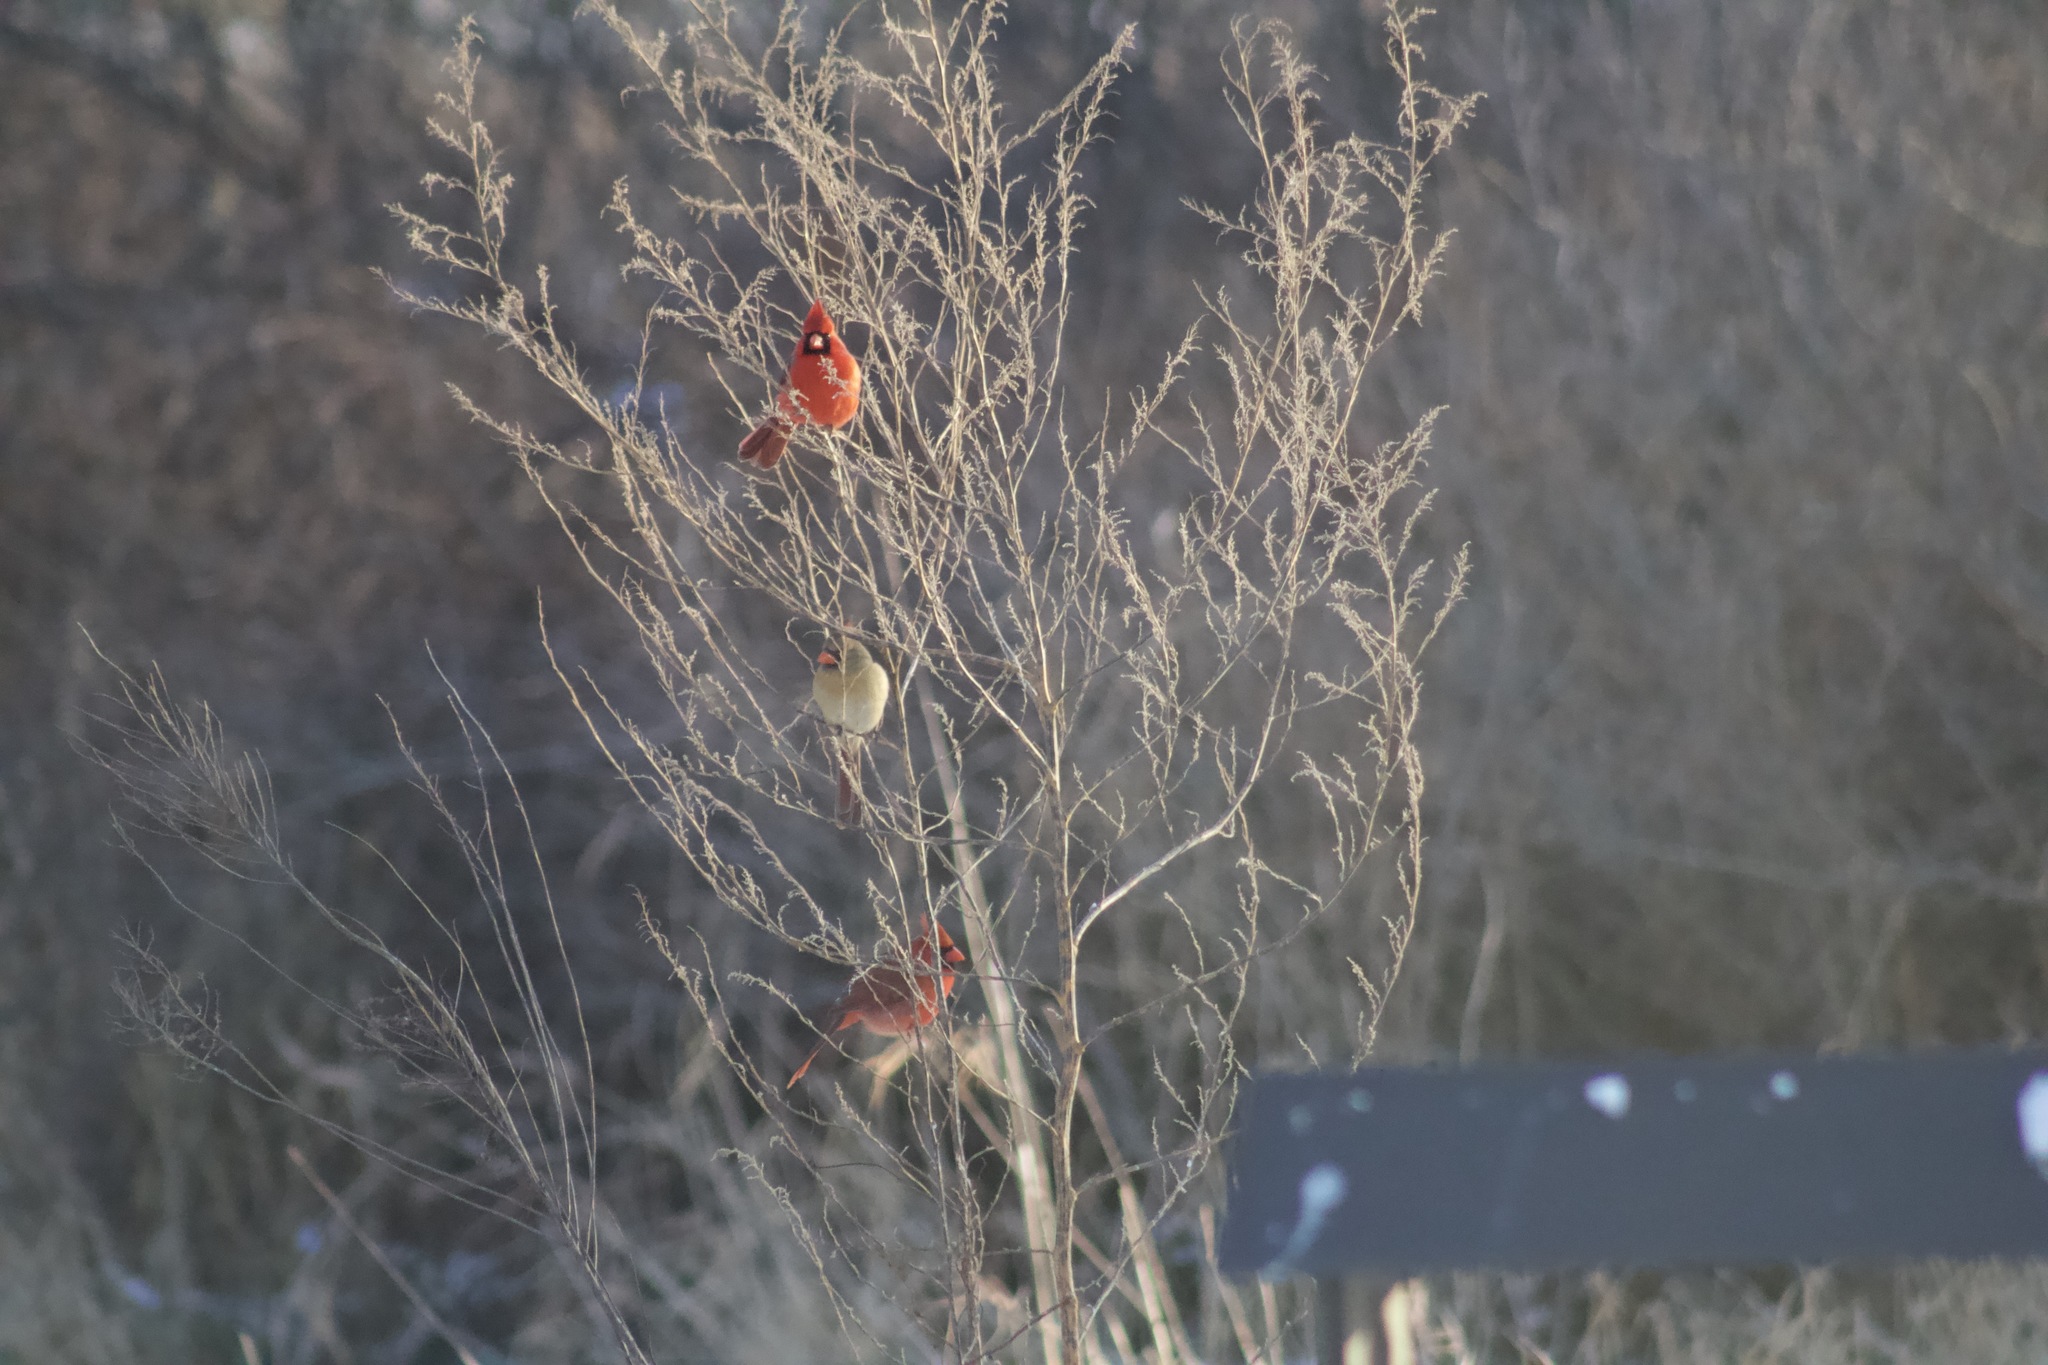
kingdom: Animalia
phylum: Chordata
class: Aves
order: Passeriformes
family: Cardinalidae
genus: Cardinalis
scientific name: Cardinalis cardinalis
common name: Northern cardinal
